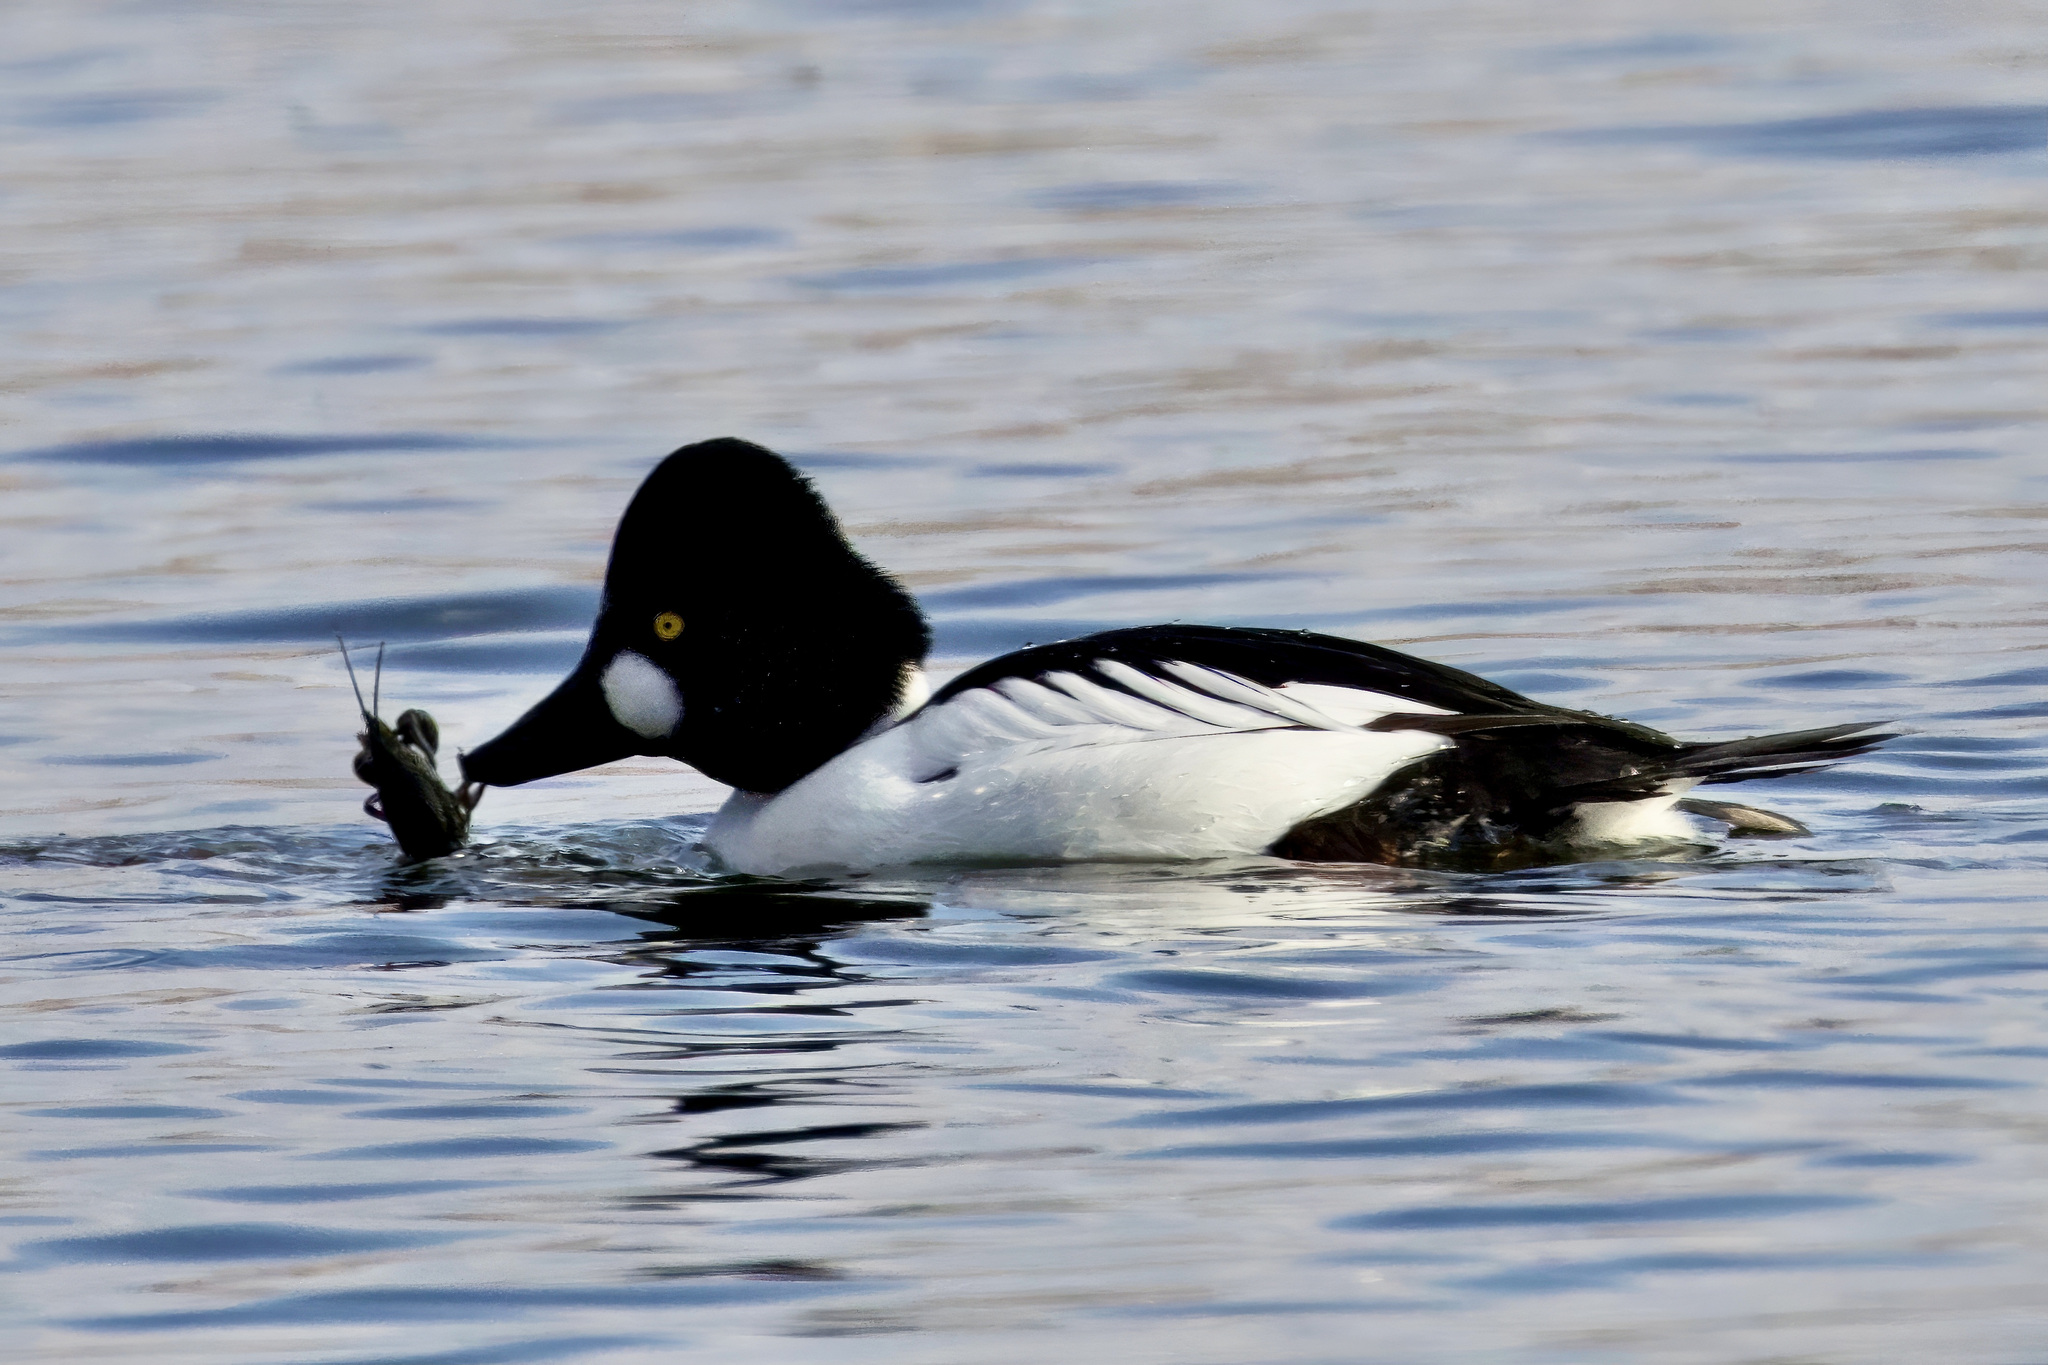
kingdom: Animalia
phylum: Chordata
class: Aves
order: Anseriformes
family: Anatidae
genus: Bucephala
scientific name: Bucephala clangula
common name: Common goldeneye
